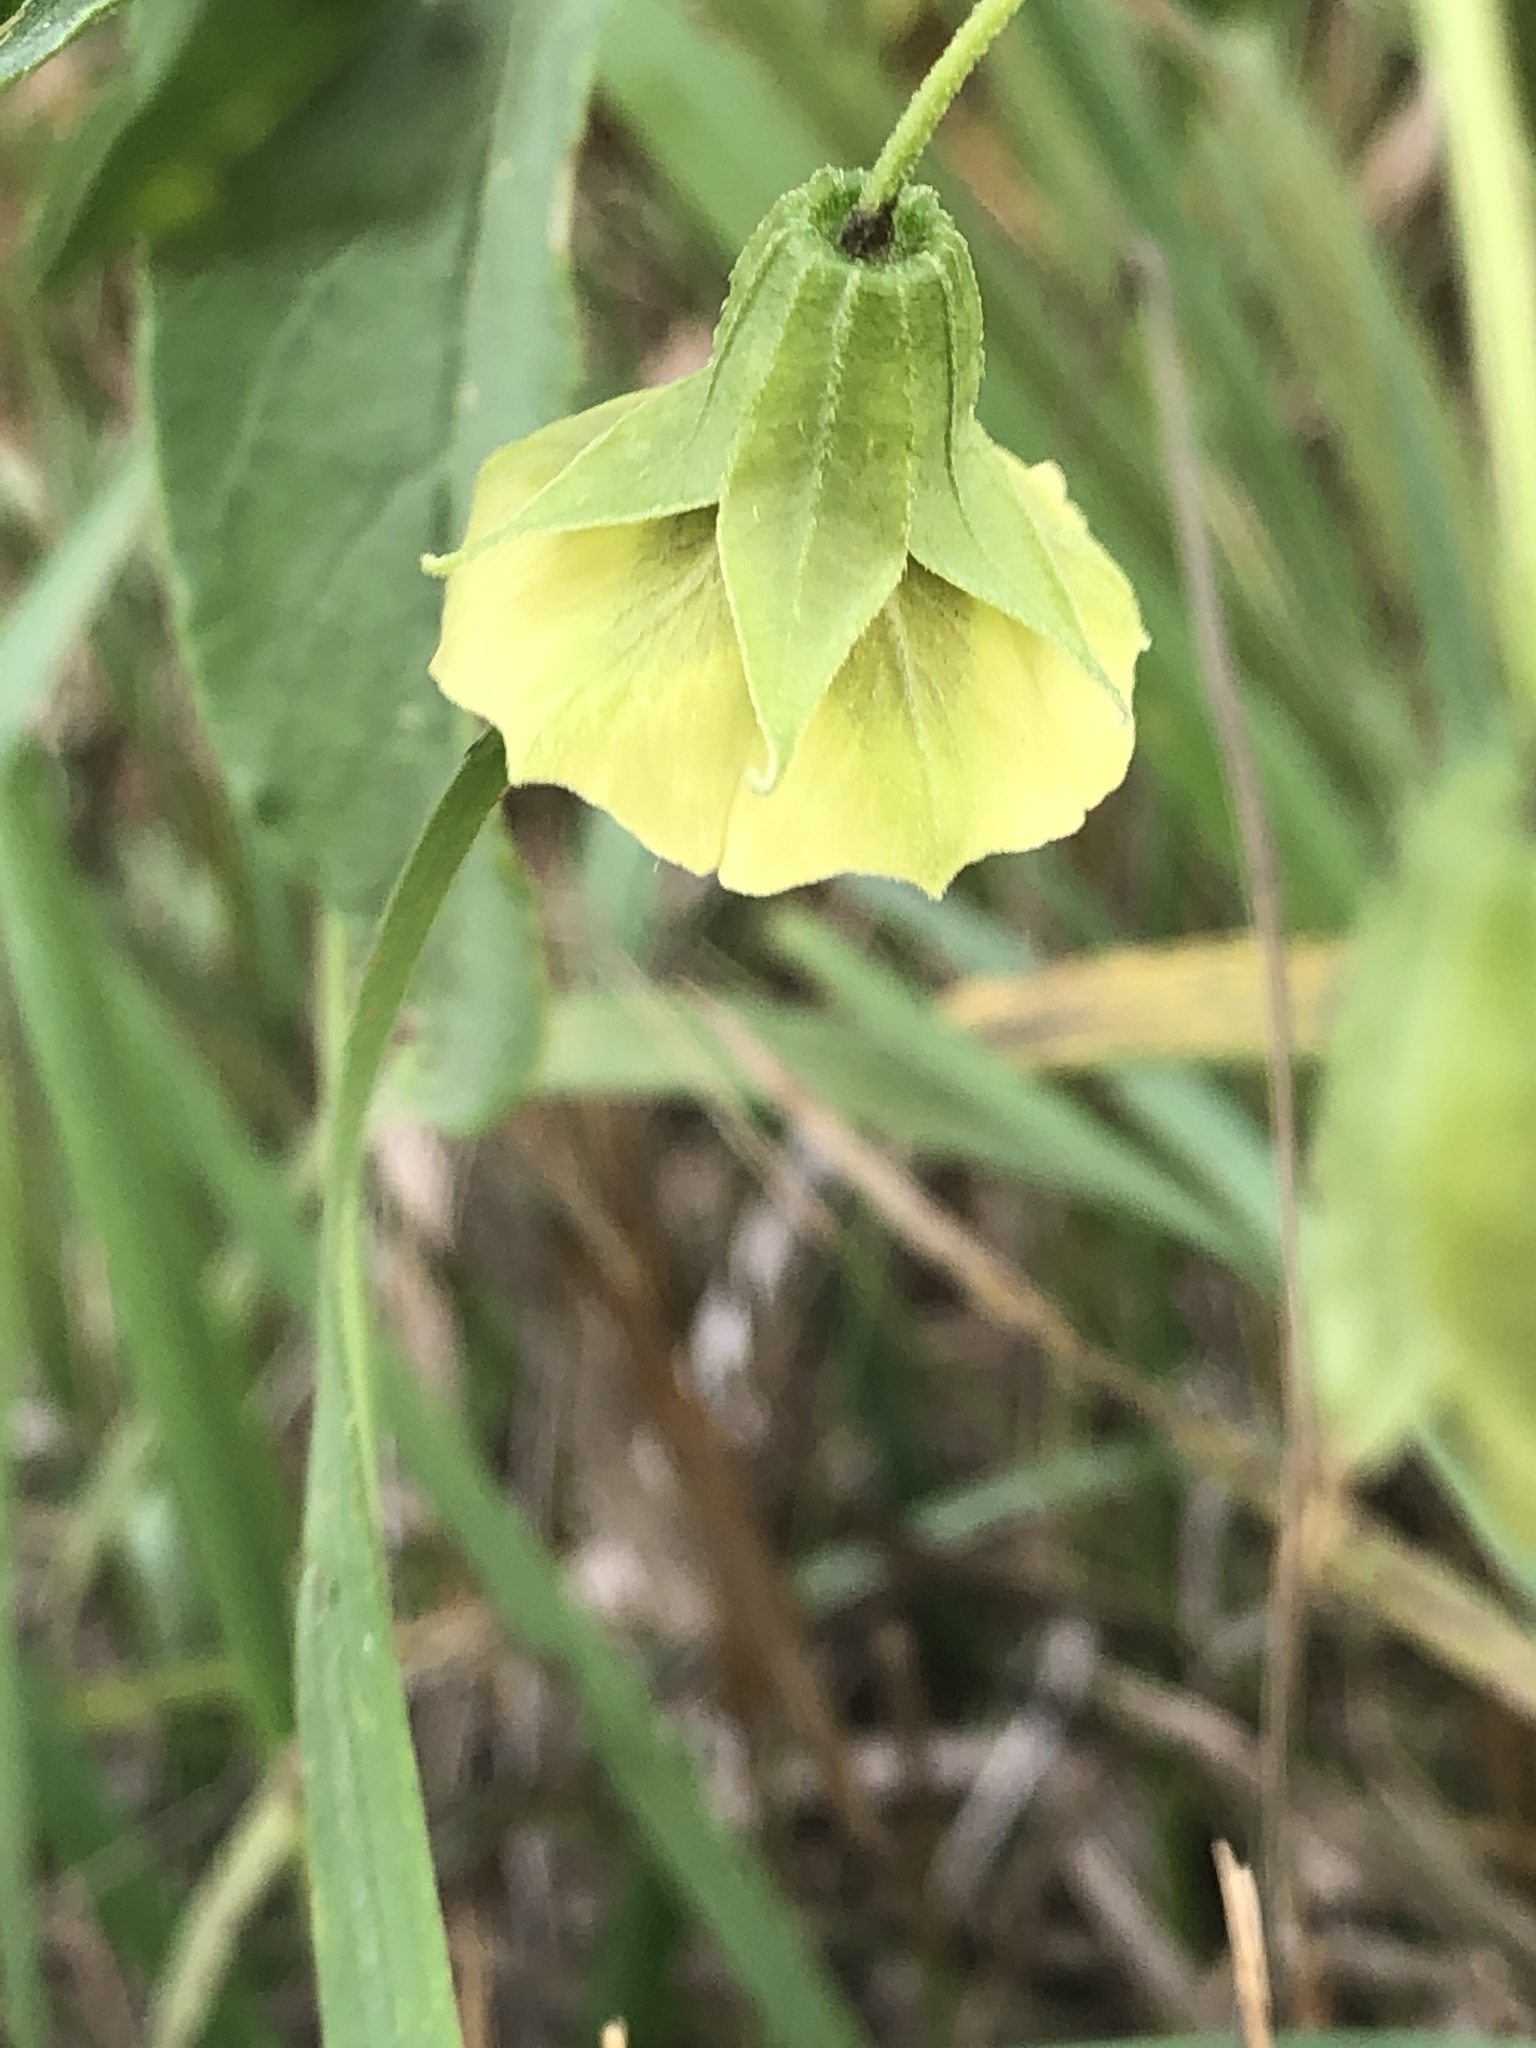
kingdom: Plantae
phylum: Tracheophyta
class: Magnoliopsida
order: Solanales
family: Solanaceae
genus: Physalis
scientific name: Physalis longifolia
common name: Common ground-cherry
